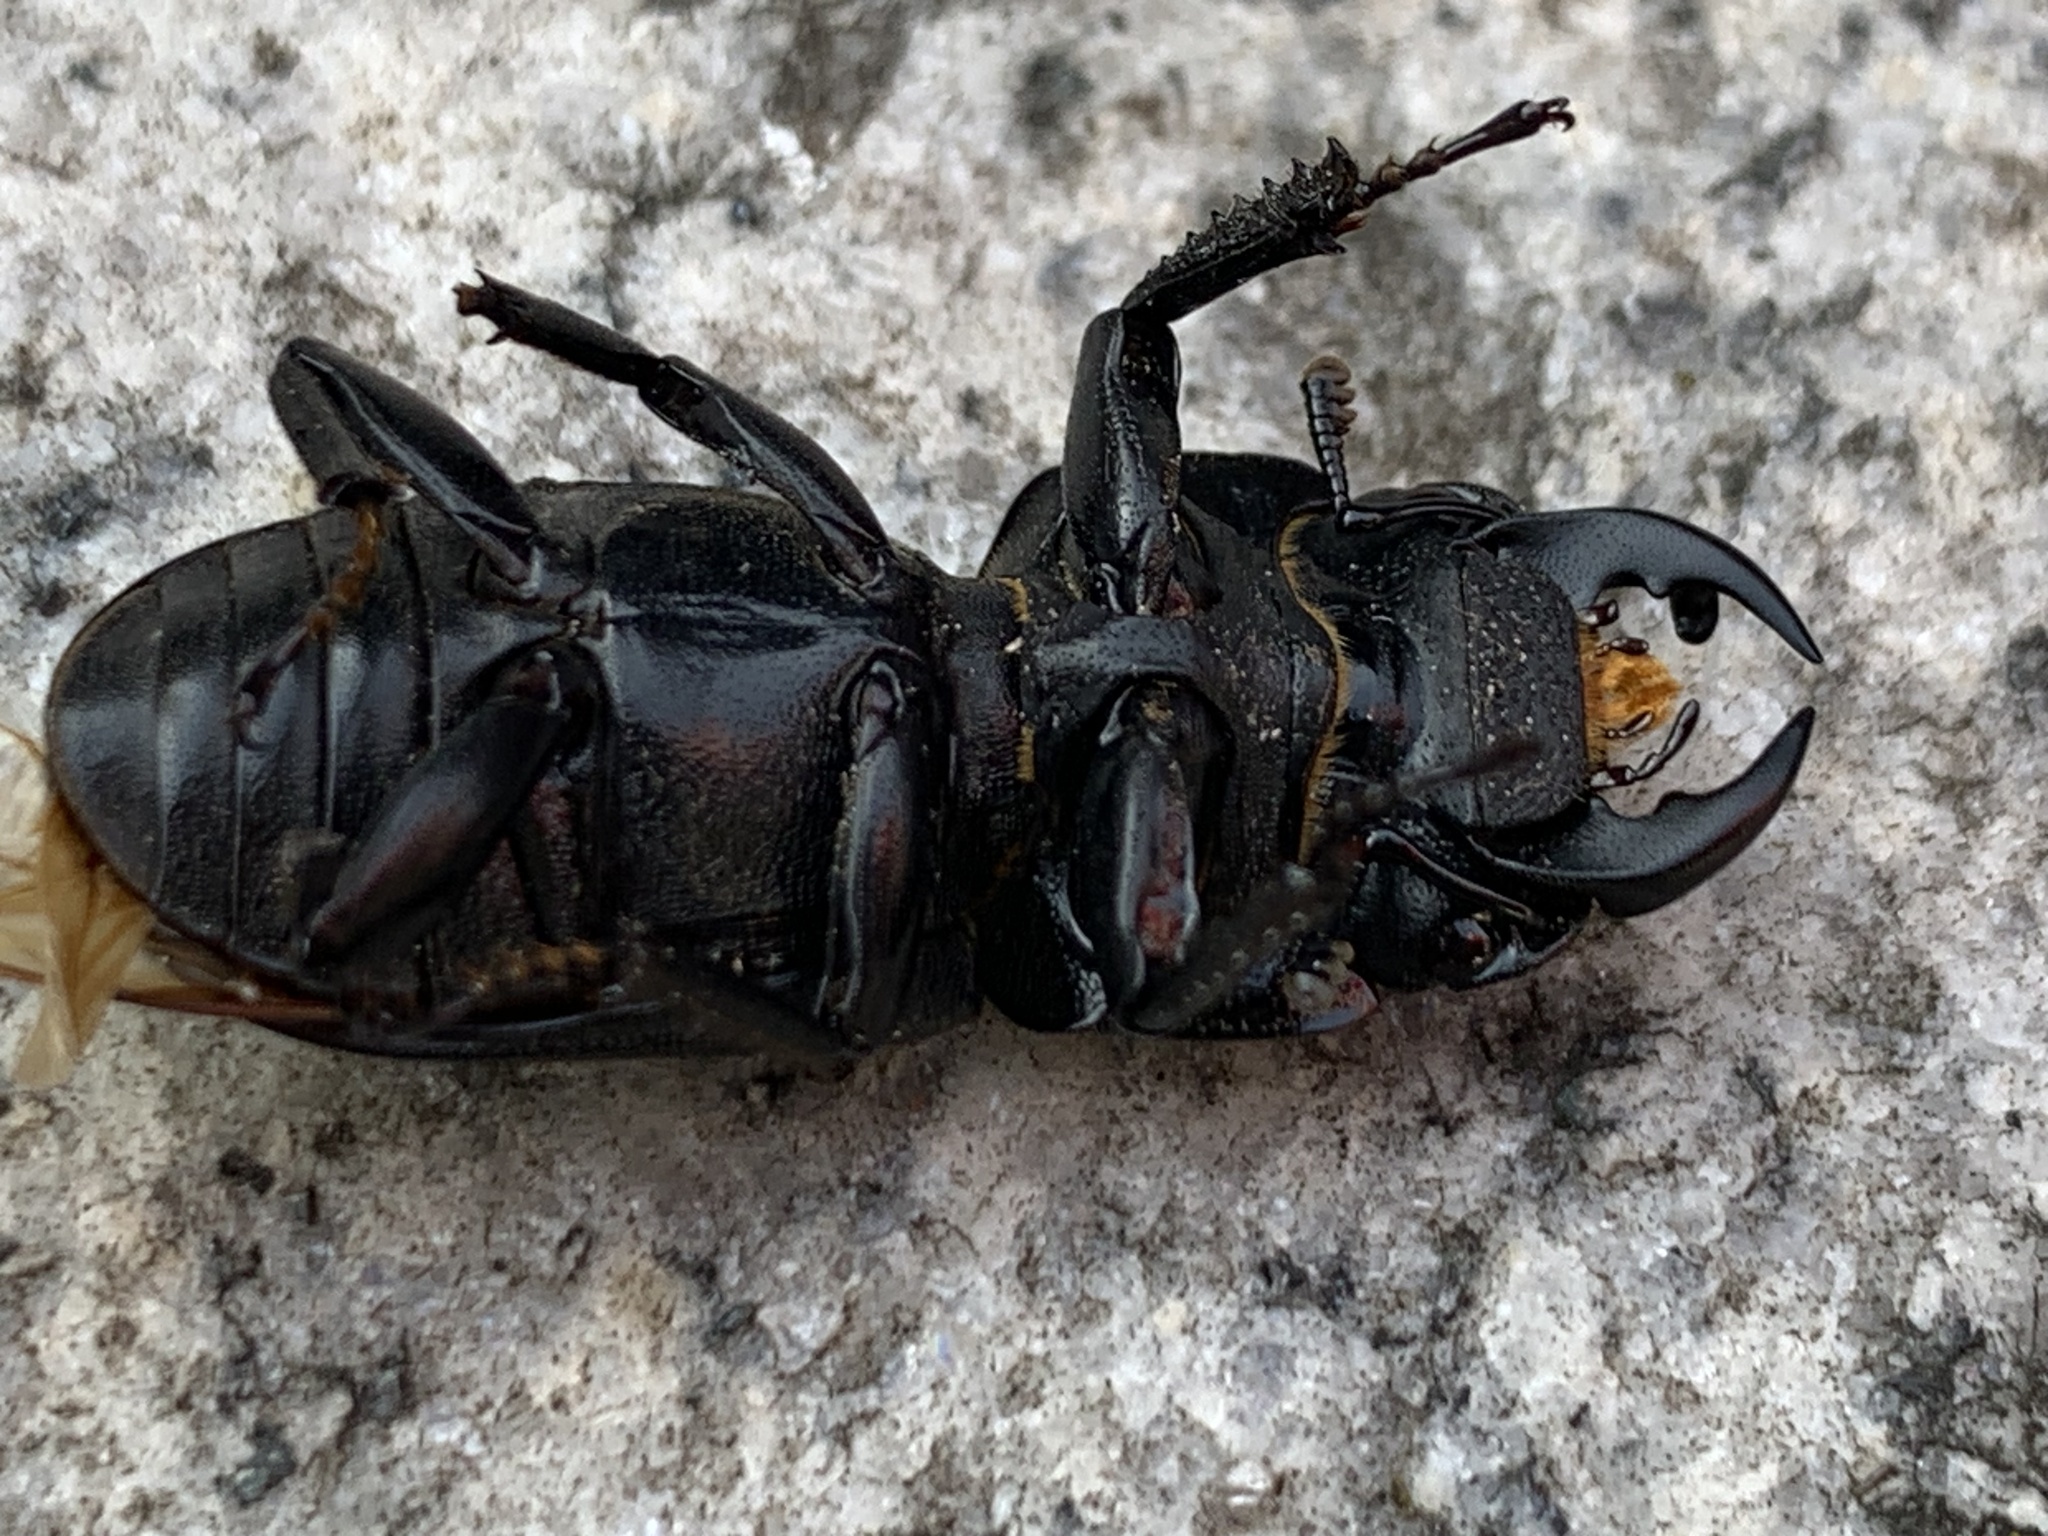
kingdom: Animalia
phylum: Arthropoda
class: Insecta
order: Coleoptera
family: Lucanidae
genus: Dorcus
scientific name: Dorcus parallelipipedus
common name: Lesser stag beetle
